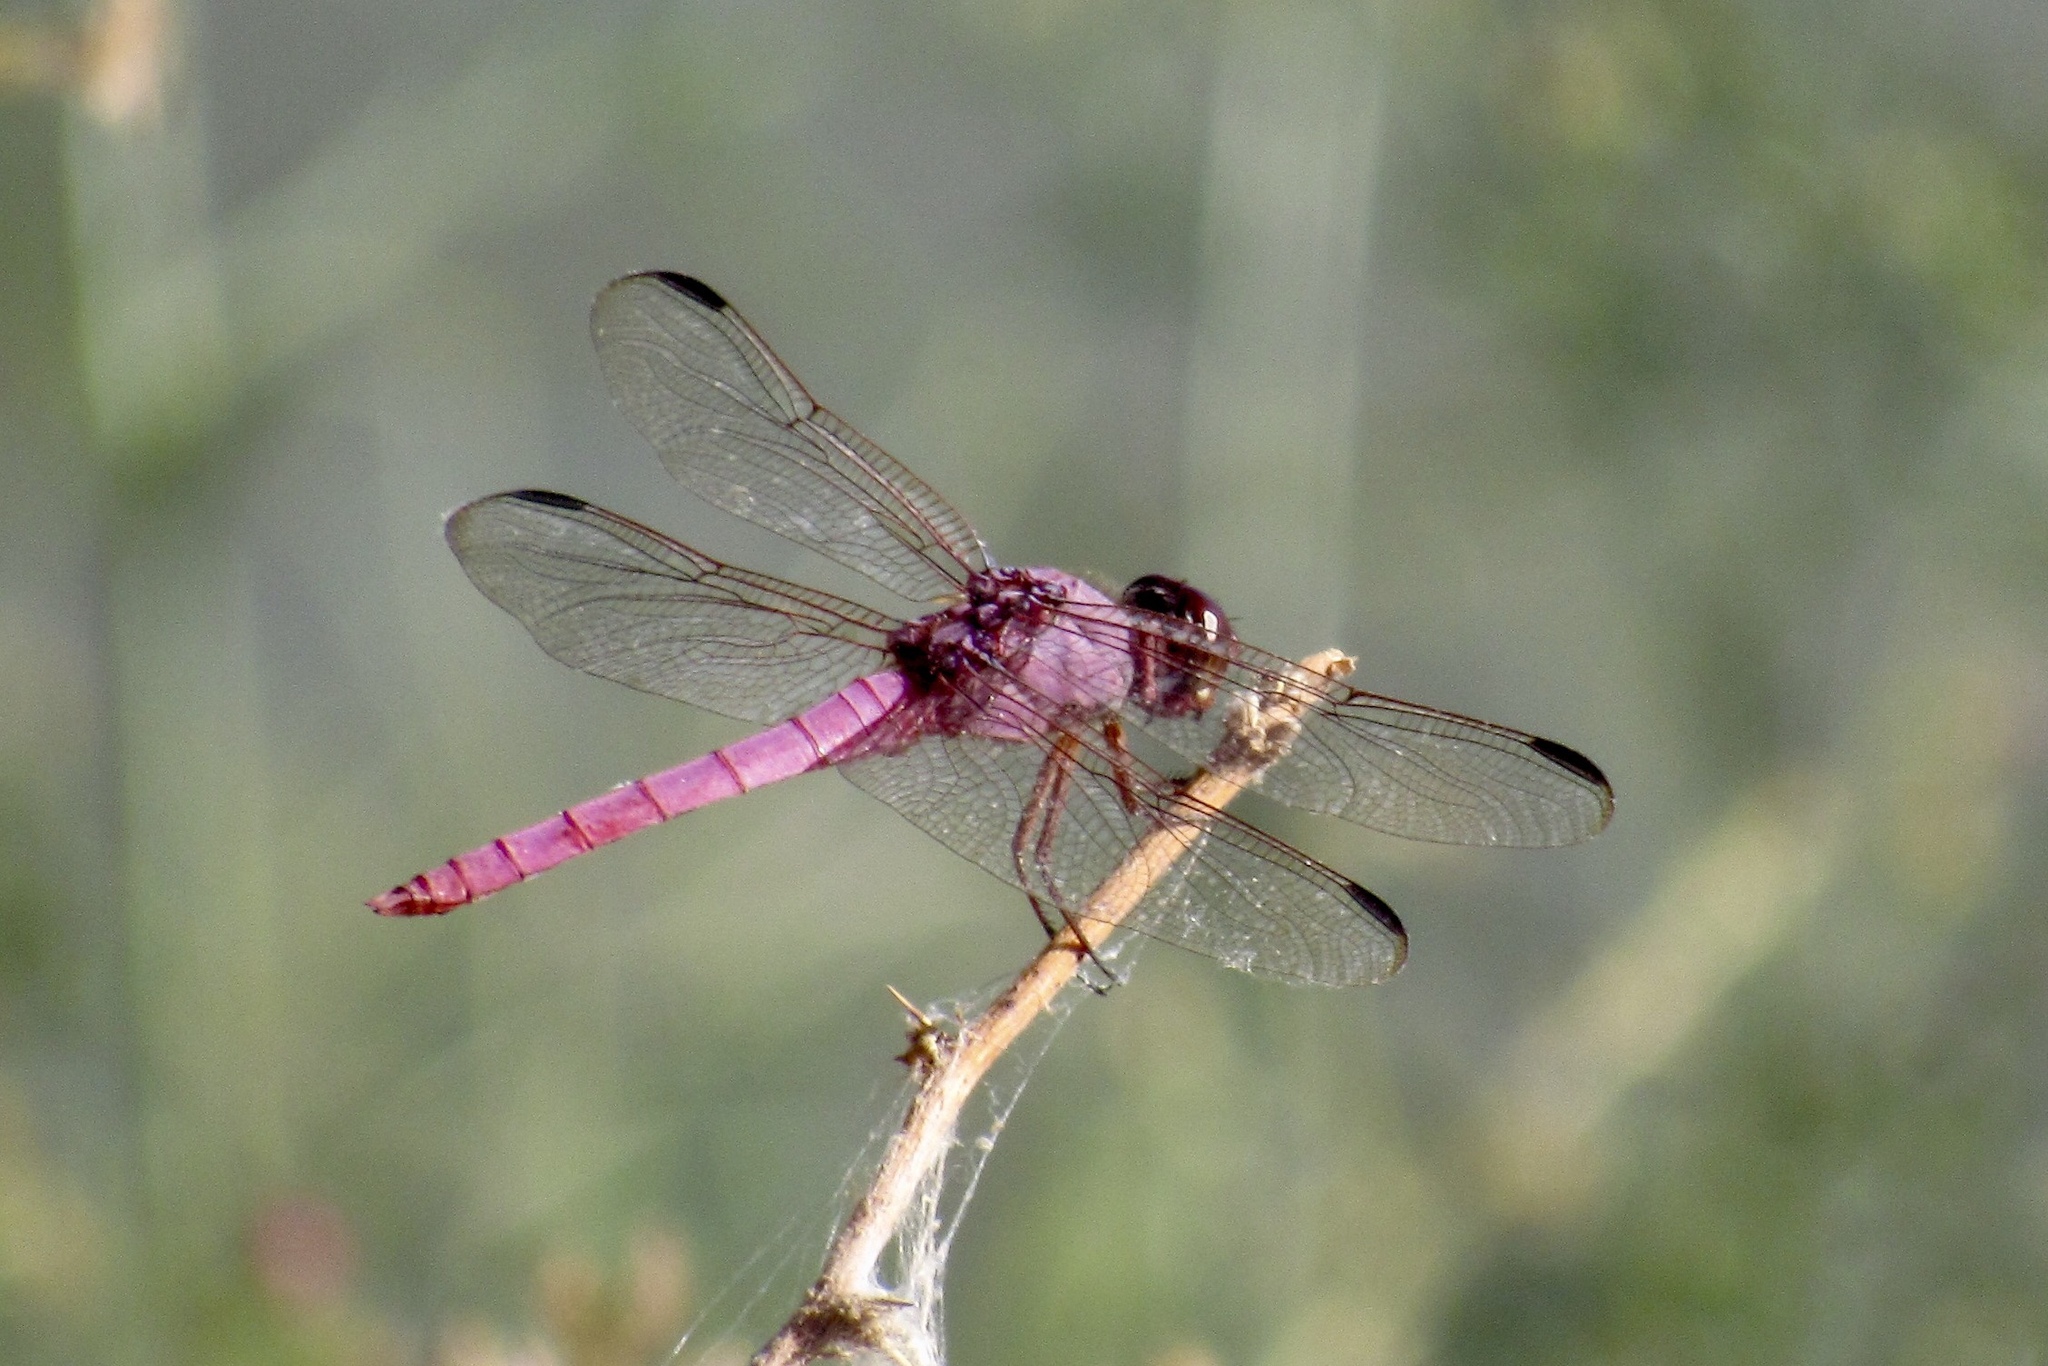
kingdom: Animalia
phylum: Arthropoda
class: Insecta
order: Odonata
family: Libellulidae
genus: Orthemis
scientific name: Orthemis ferruginea
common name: Roseate skimmer
